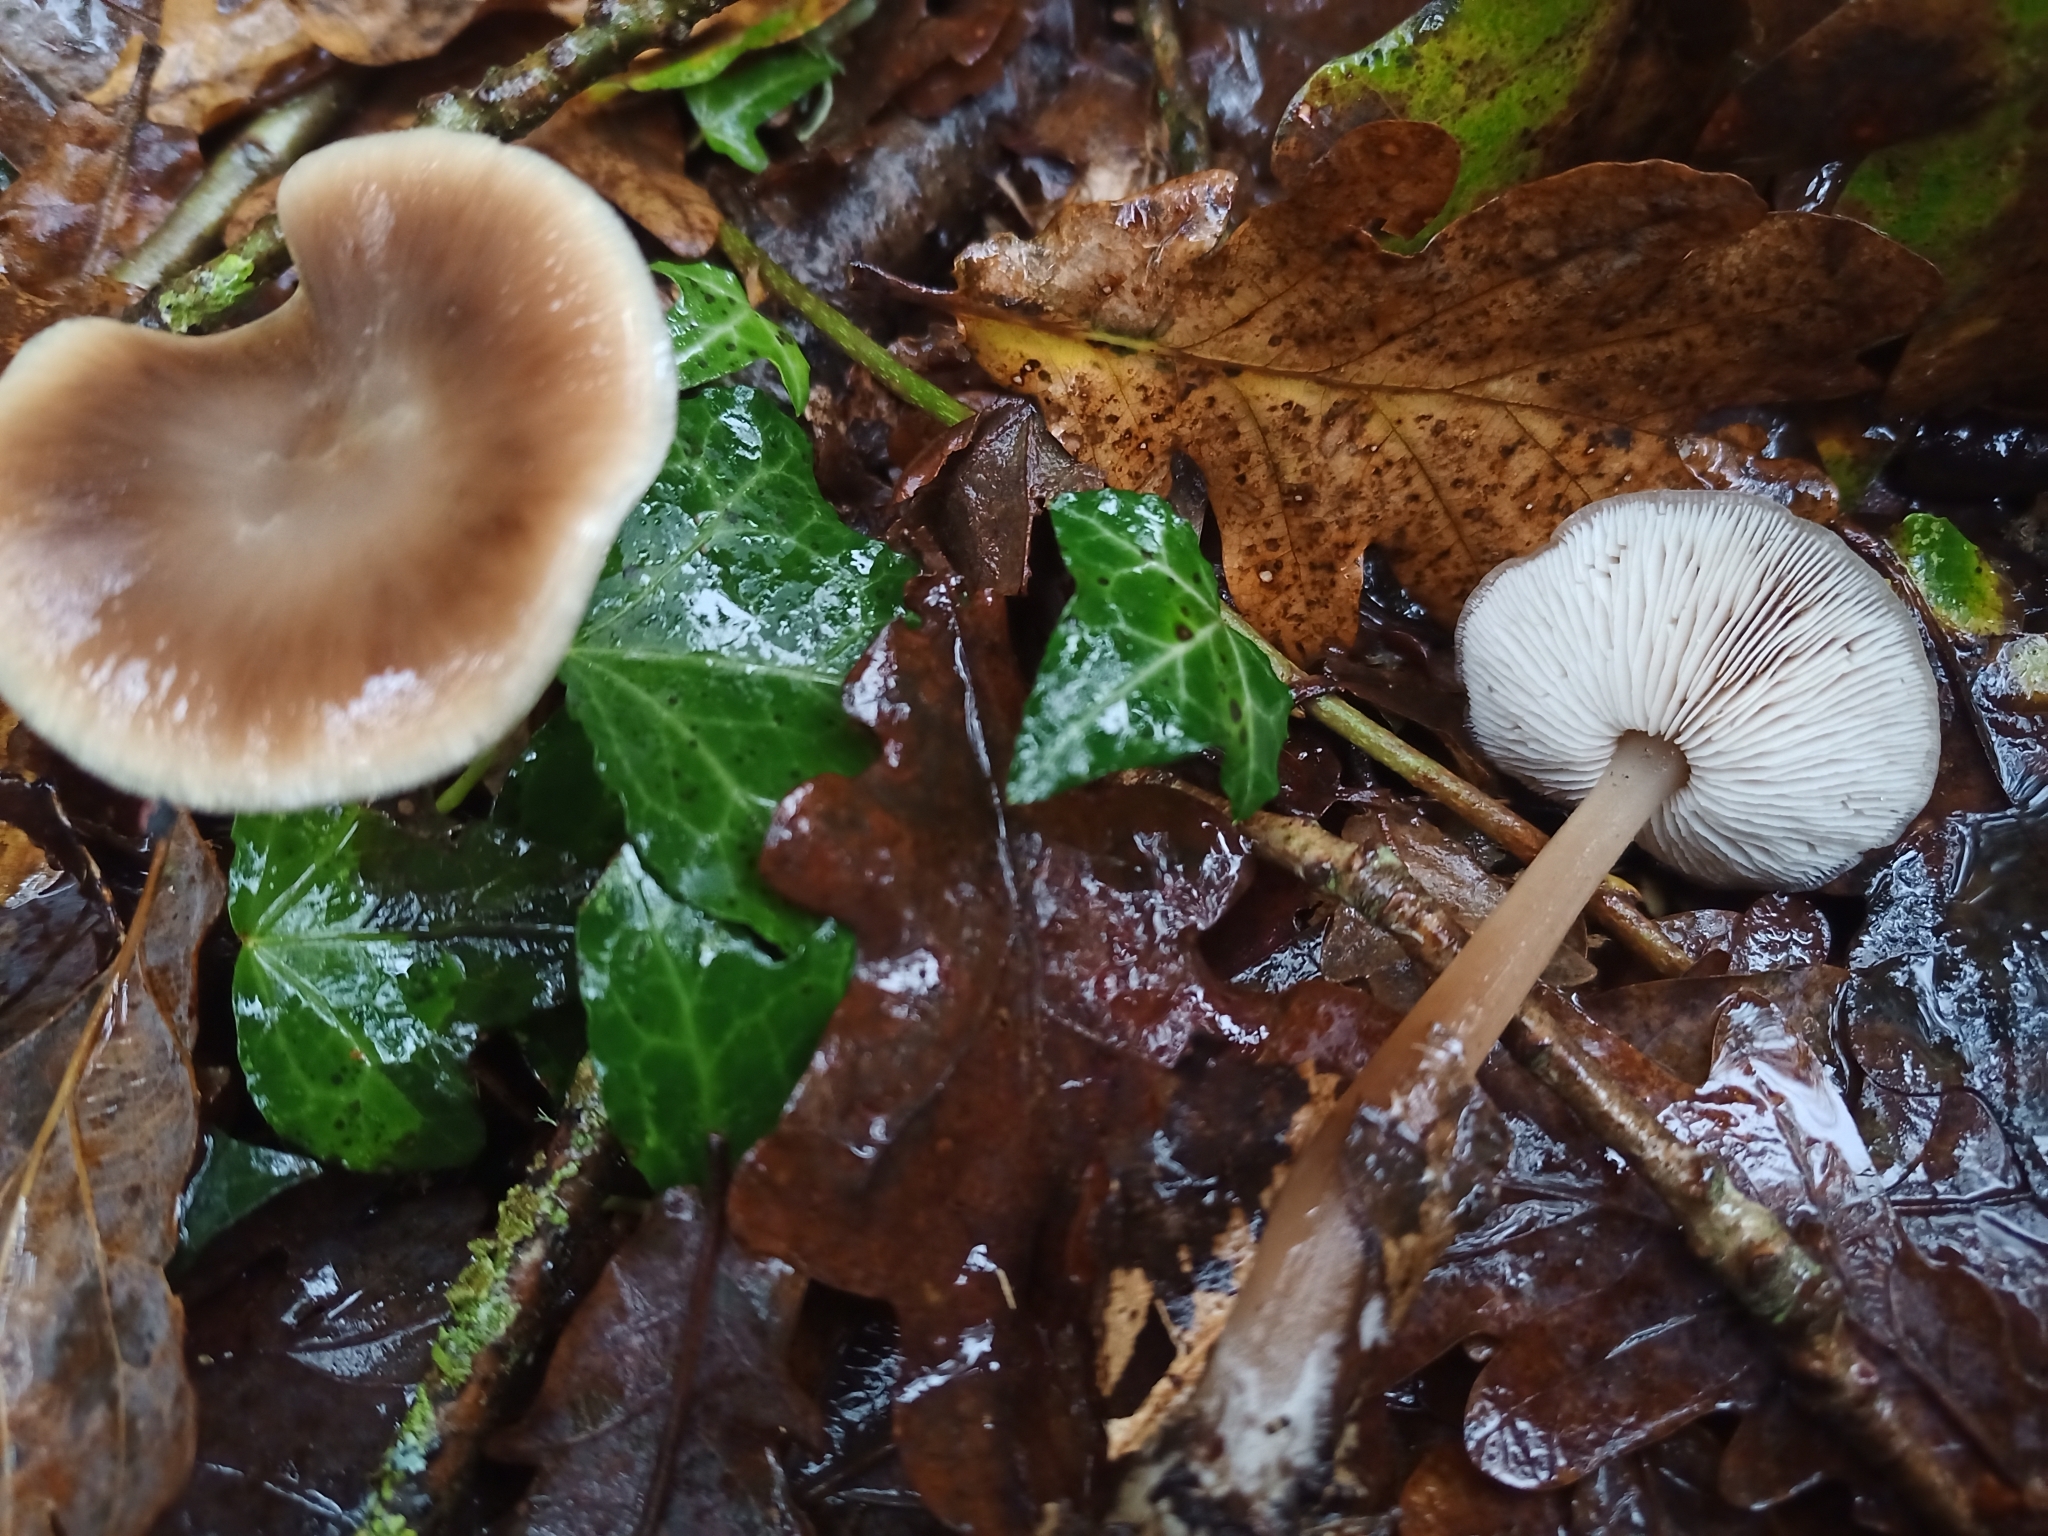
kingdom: Fungi
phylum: Basidiomycota
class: Agaricomycetes
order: Agaricales
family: Omphalotaceae
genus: Rhodocollybia
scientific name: Rhodocollybia butyracea
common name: Butter cap
